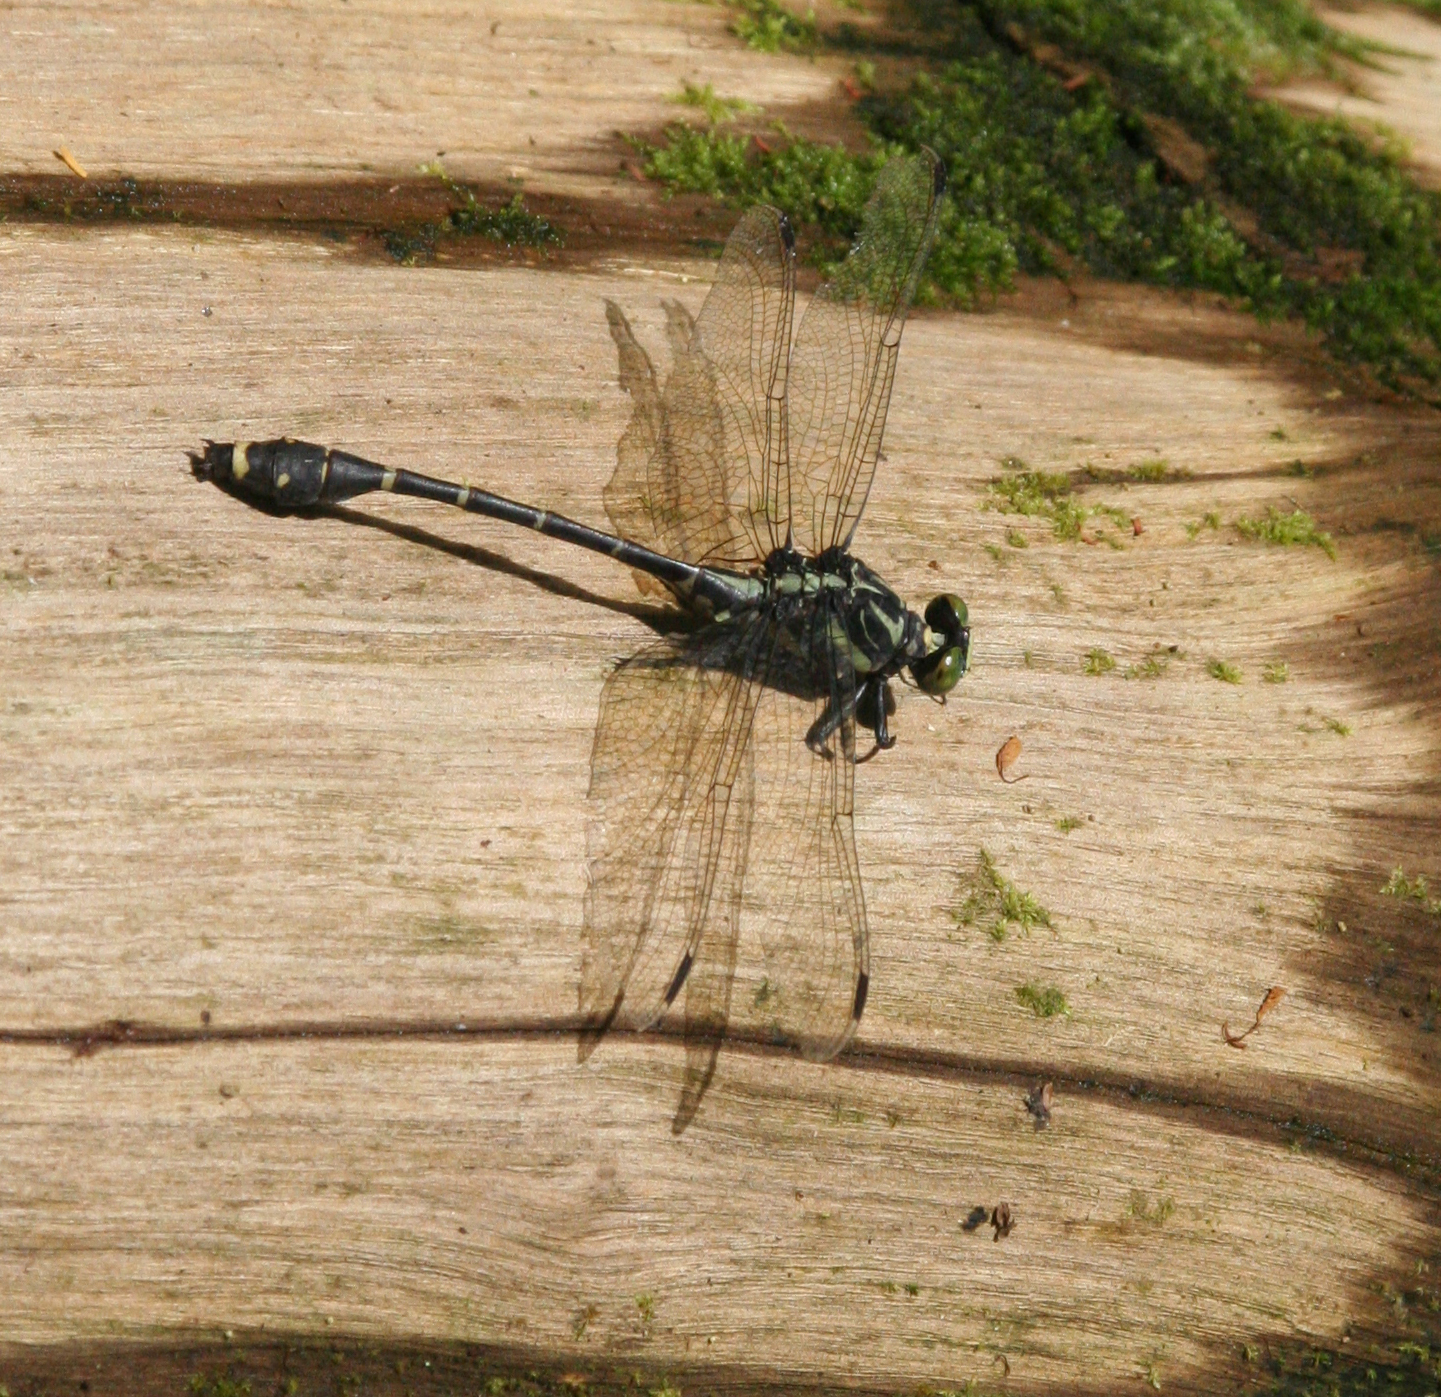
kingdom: Animalia
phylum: Arthropoda
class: Insecta
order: Odonata
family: Gomphidae
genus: Asiagomphus
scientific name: Asiagomphus reinhardti
